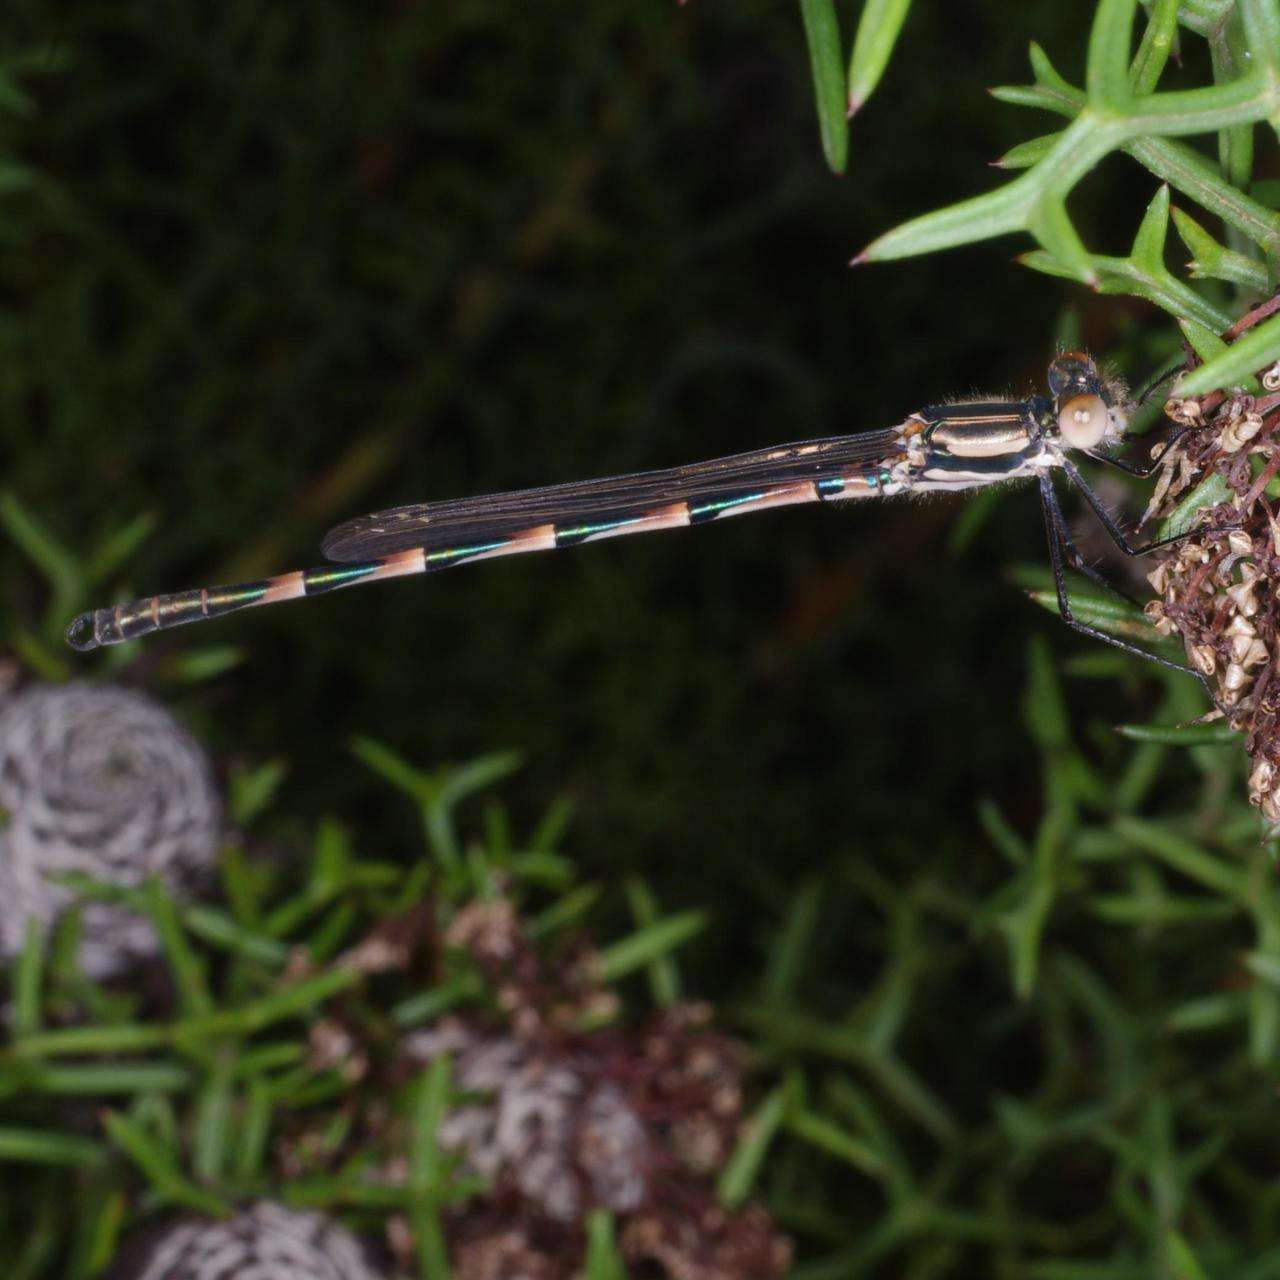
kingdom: Animalia
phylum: Arthropoda
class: Insecta
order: Odonata
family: Lestidae
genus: Austrolestes
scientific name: Austrolestes annulosus
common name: Blue ringtail
